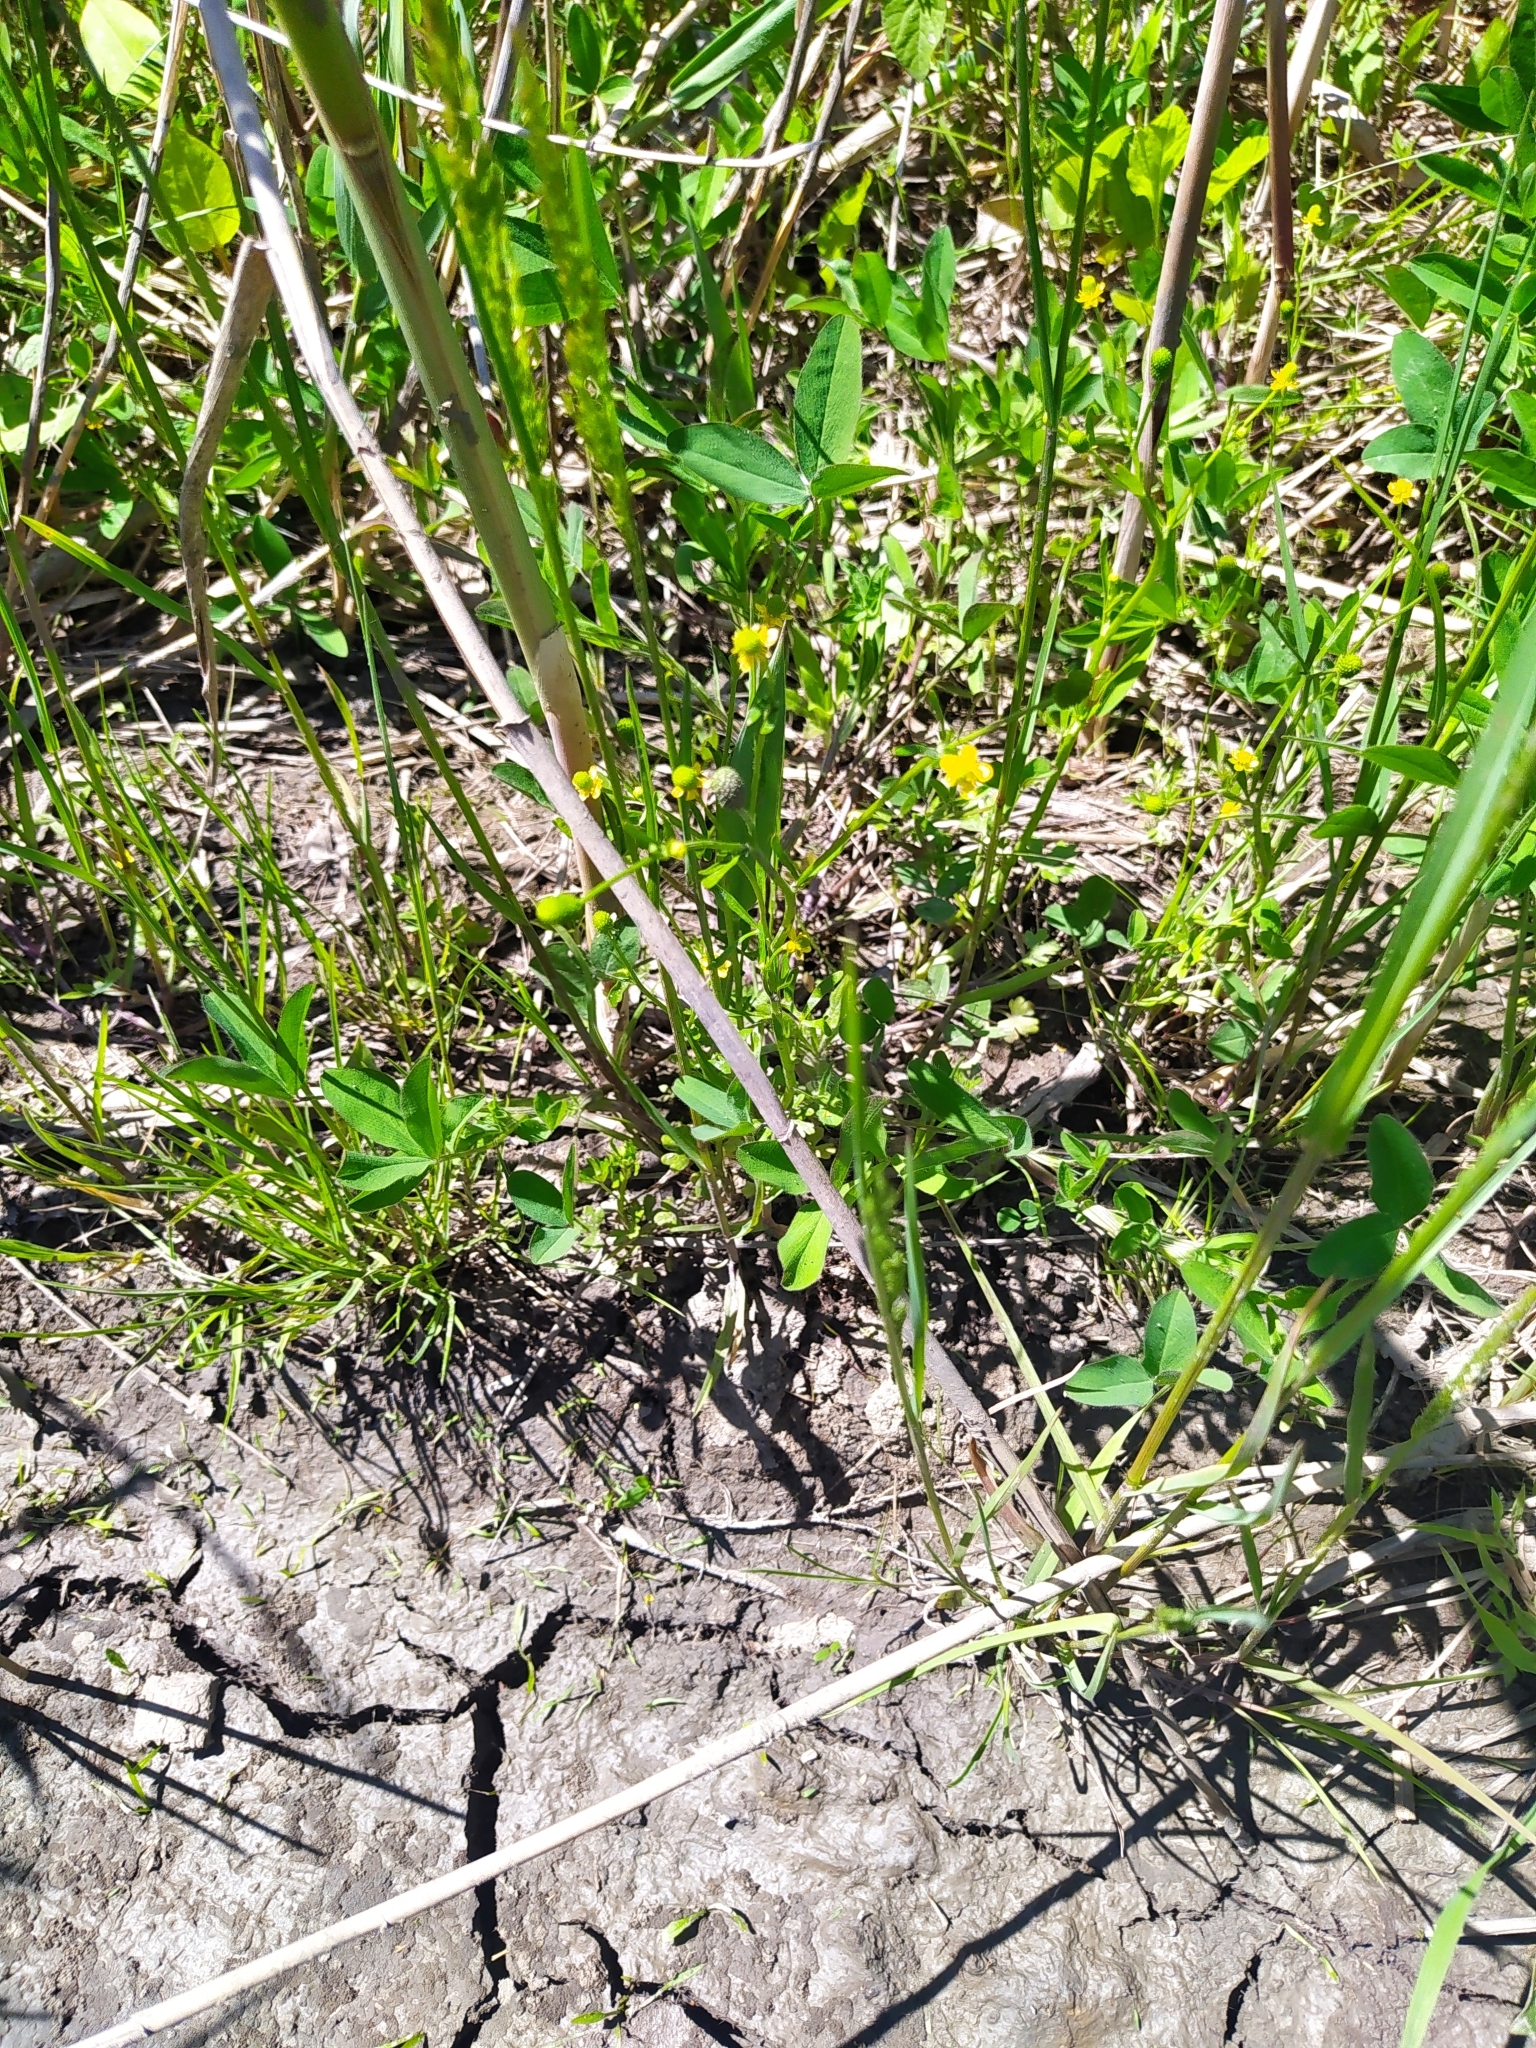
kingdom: Plantae
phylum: Tracheophyta
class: Magnoliopsida
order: Ranunculales
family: Ranunculaceae
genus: Ranunculus
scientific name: Ranunculus sceleratus
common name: Celery-leaved buttercup
